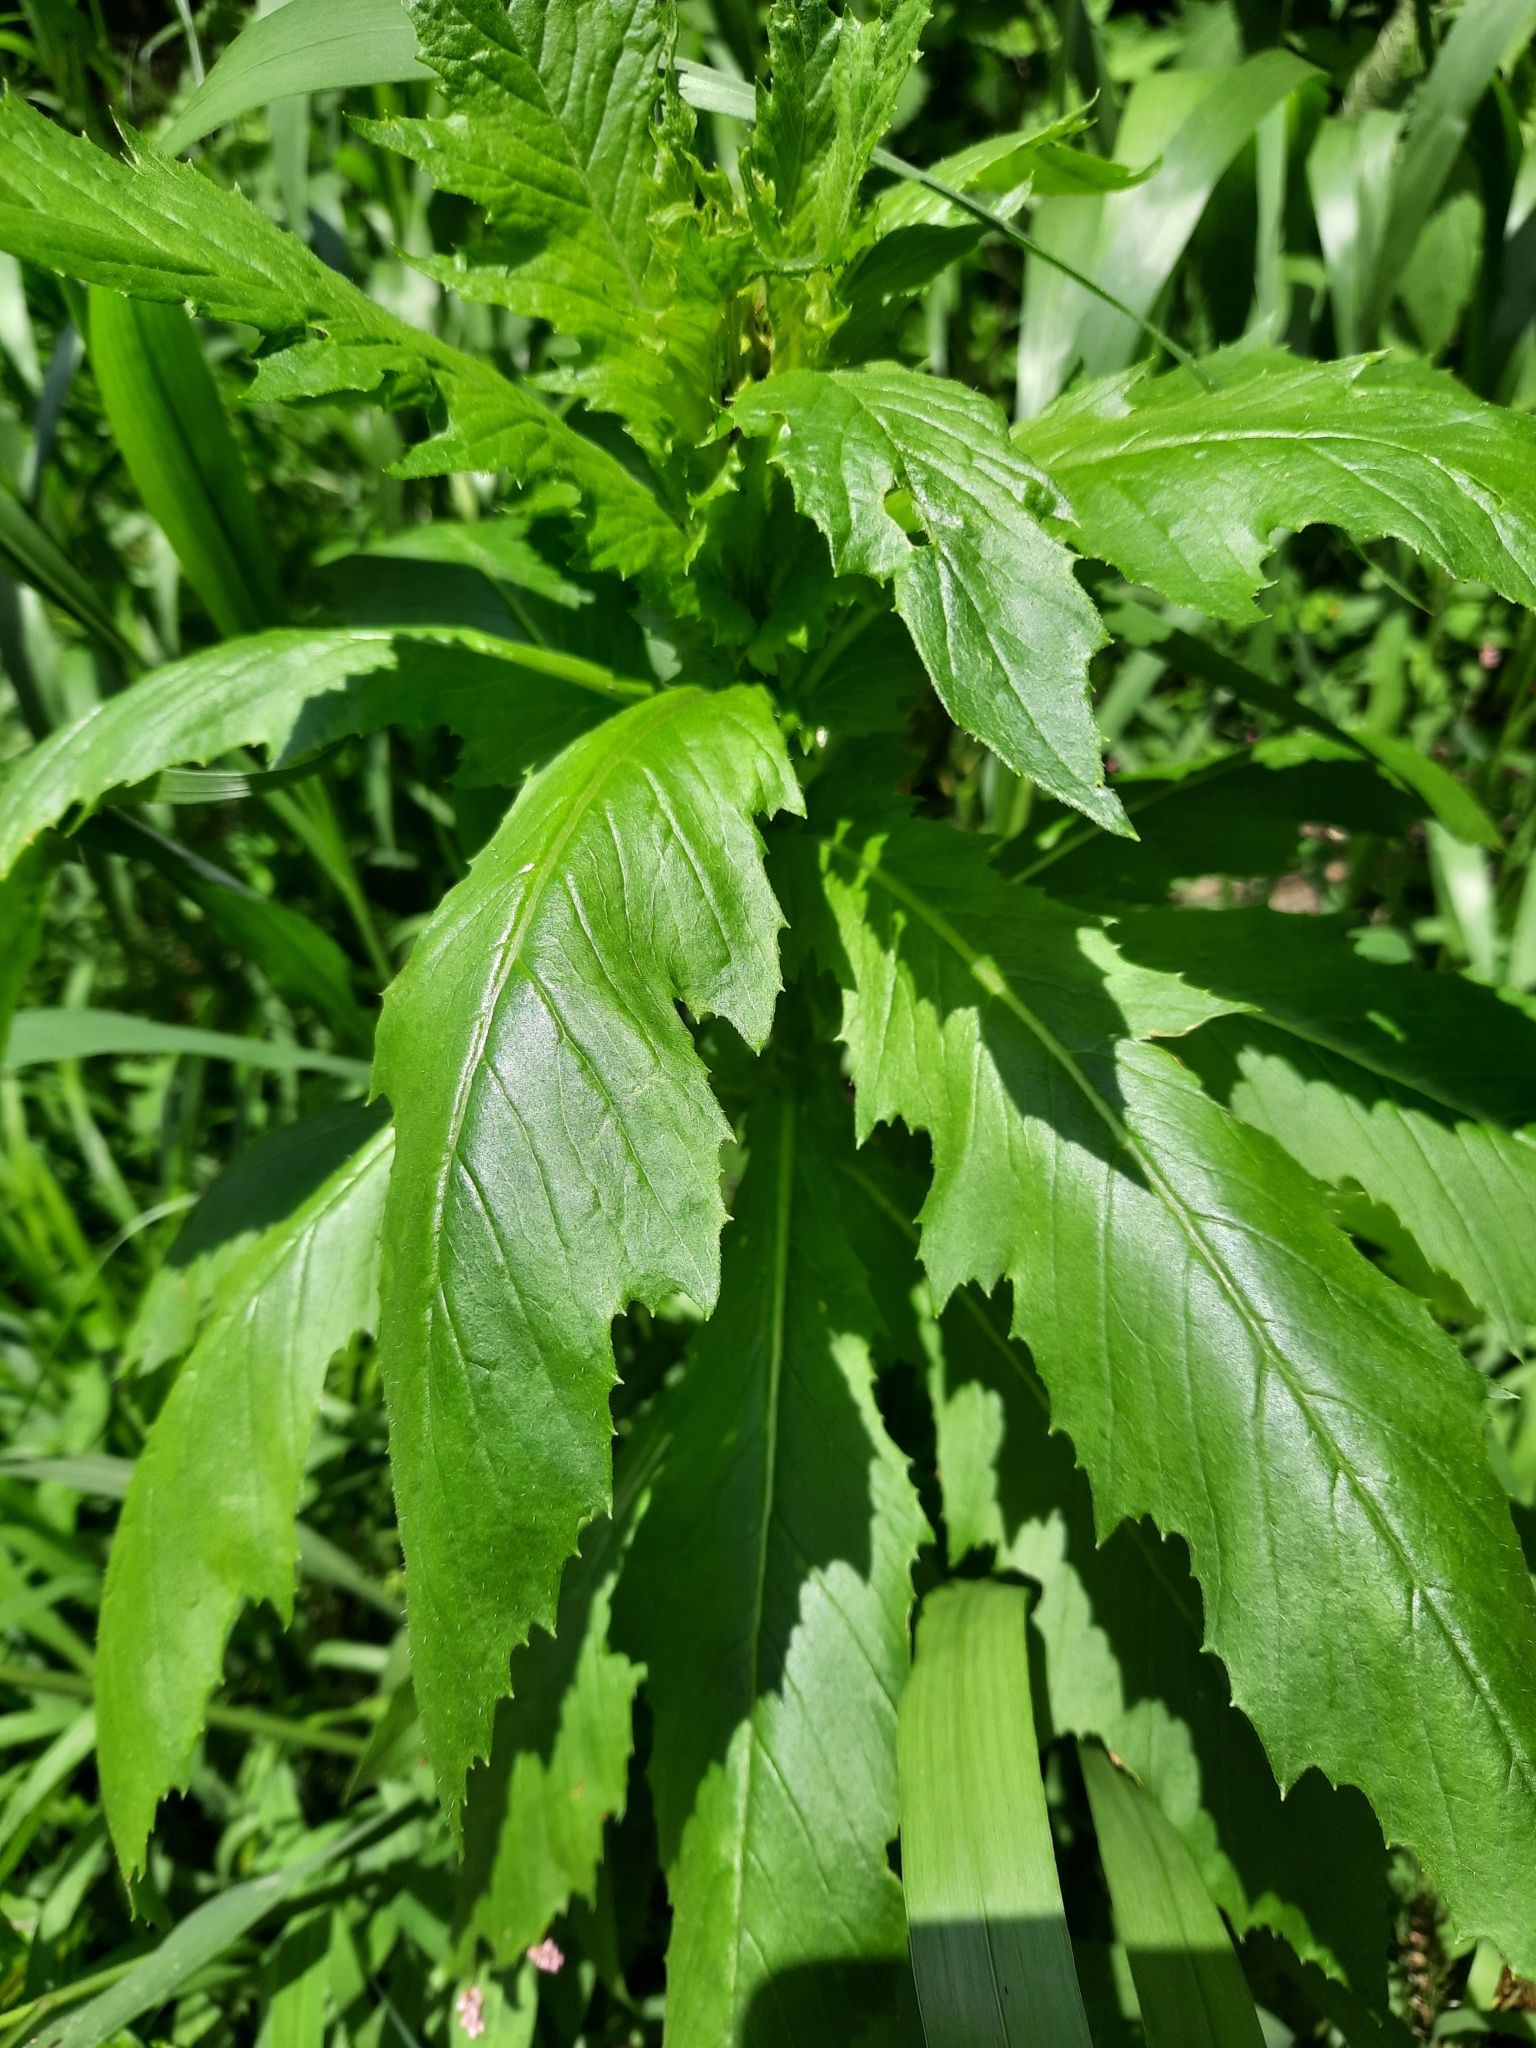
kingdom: Plantae
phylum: Tracheophyta
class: Magnoliopsida
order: Asterales
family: Asteraceae
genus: Erechtites
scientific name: Erechtites hieraciifolius
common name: American burnweed
